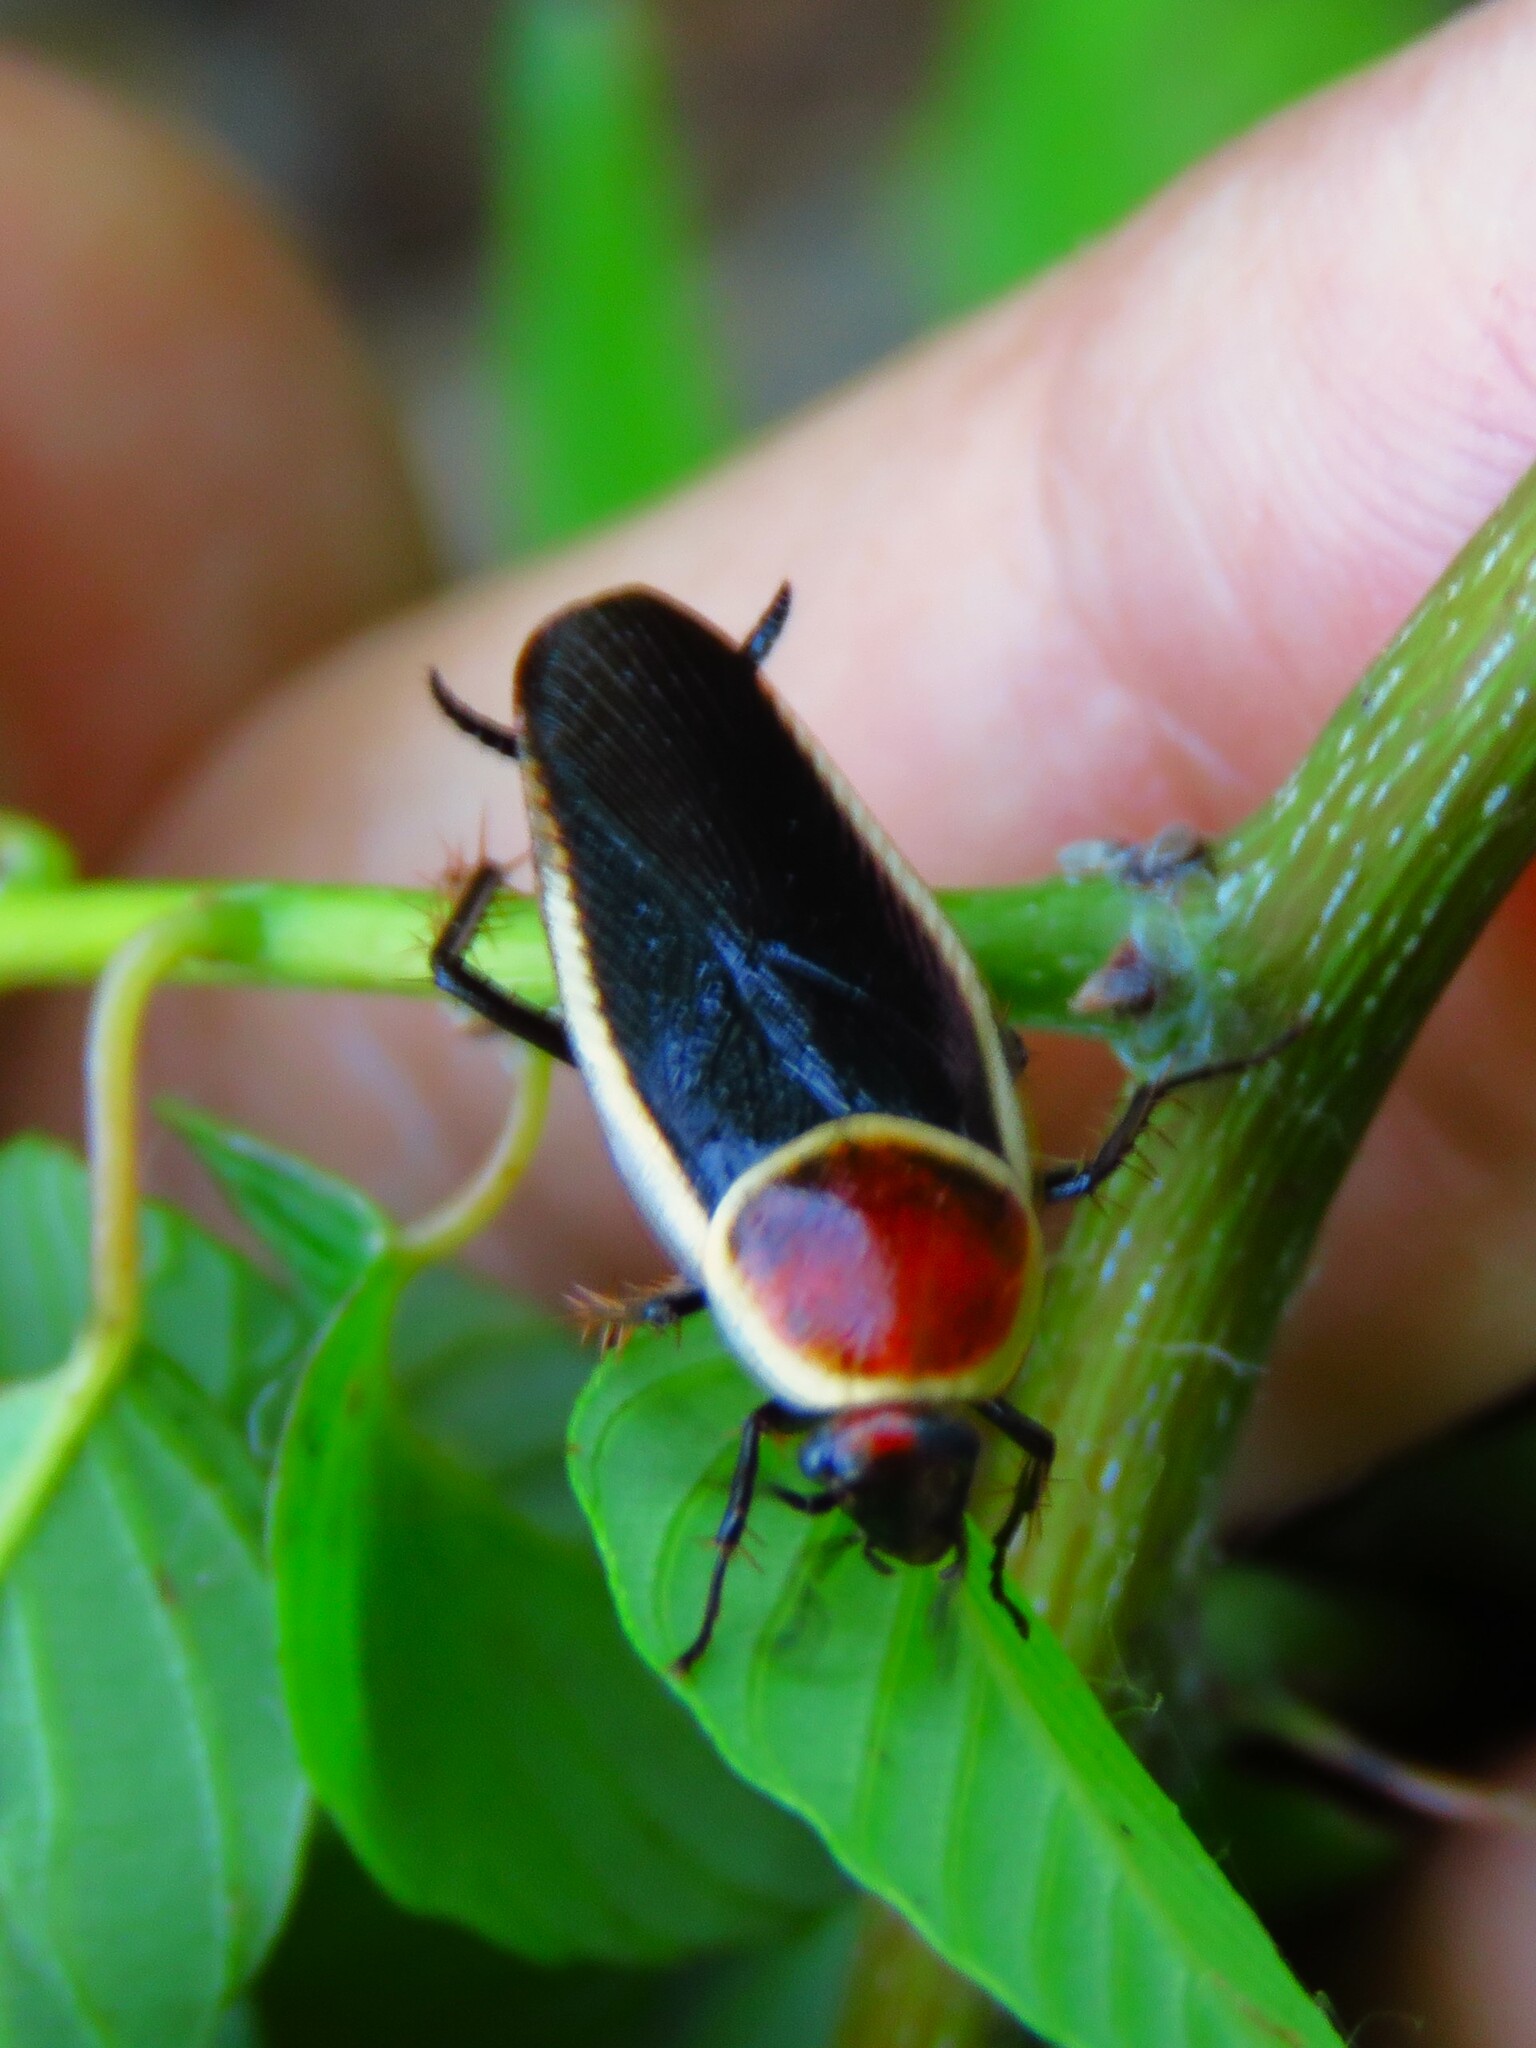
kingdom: Animalia
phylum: Arthropoda
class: Insecta
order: Blattodea
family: Ectobiidae
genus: Pseudomops
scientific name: Pseudomops septentrionalis
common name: Pale-bordered field cockroach
